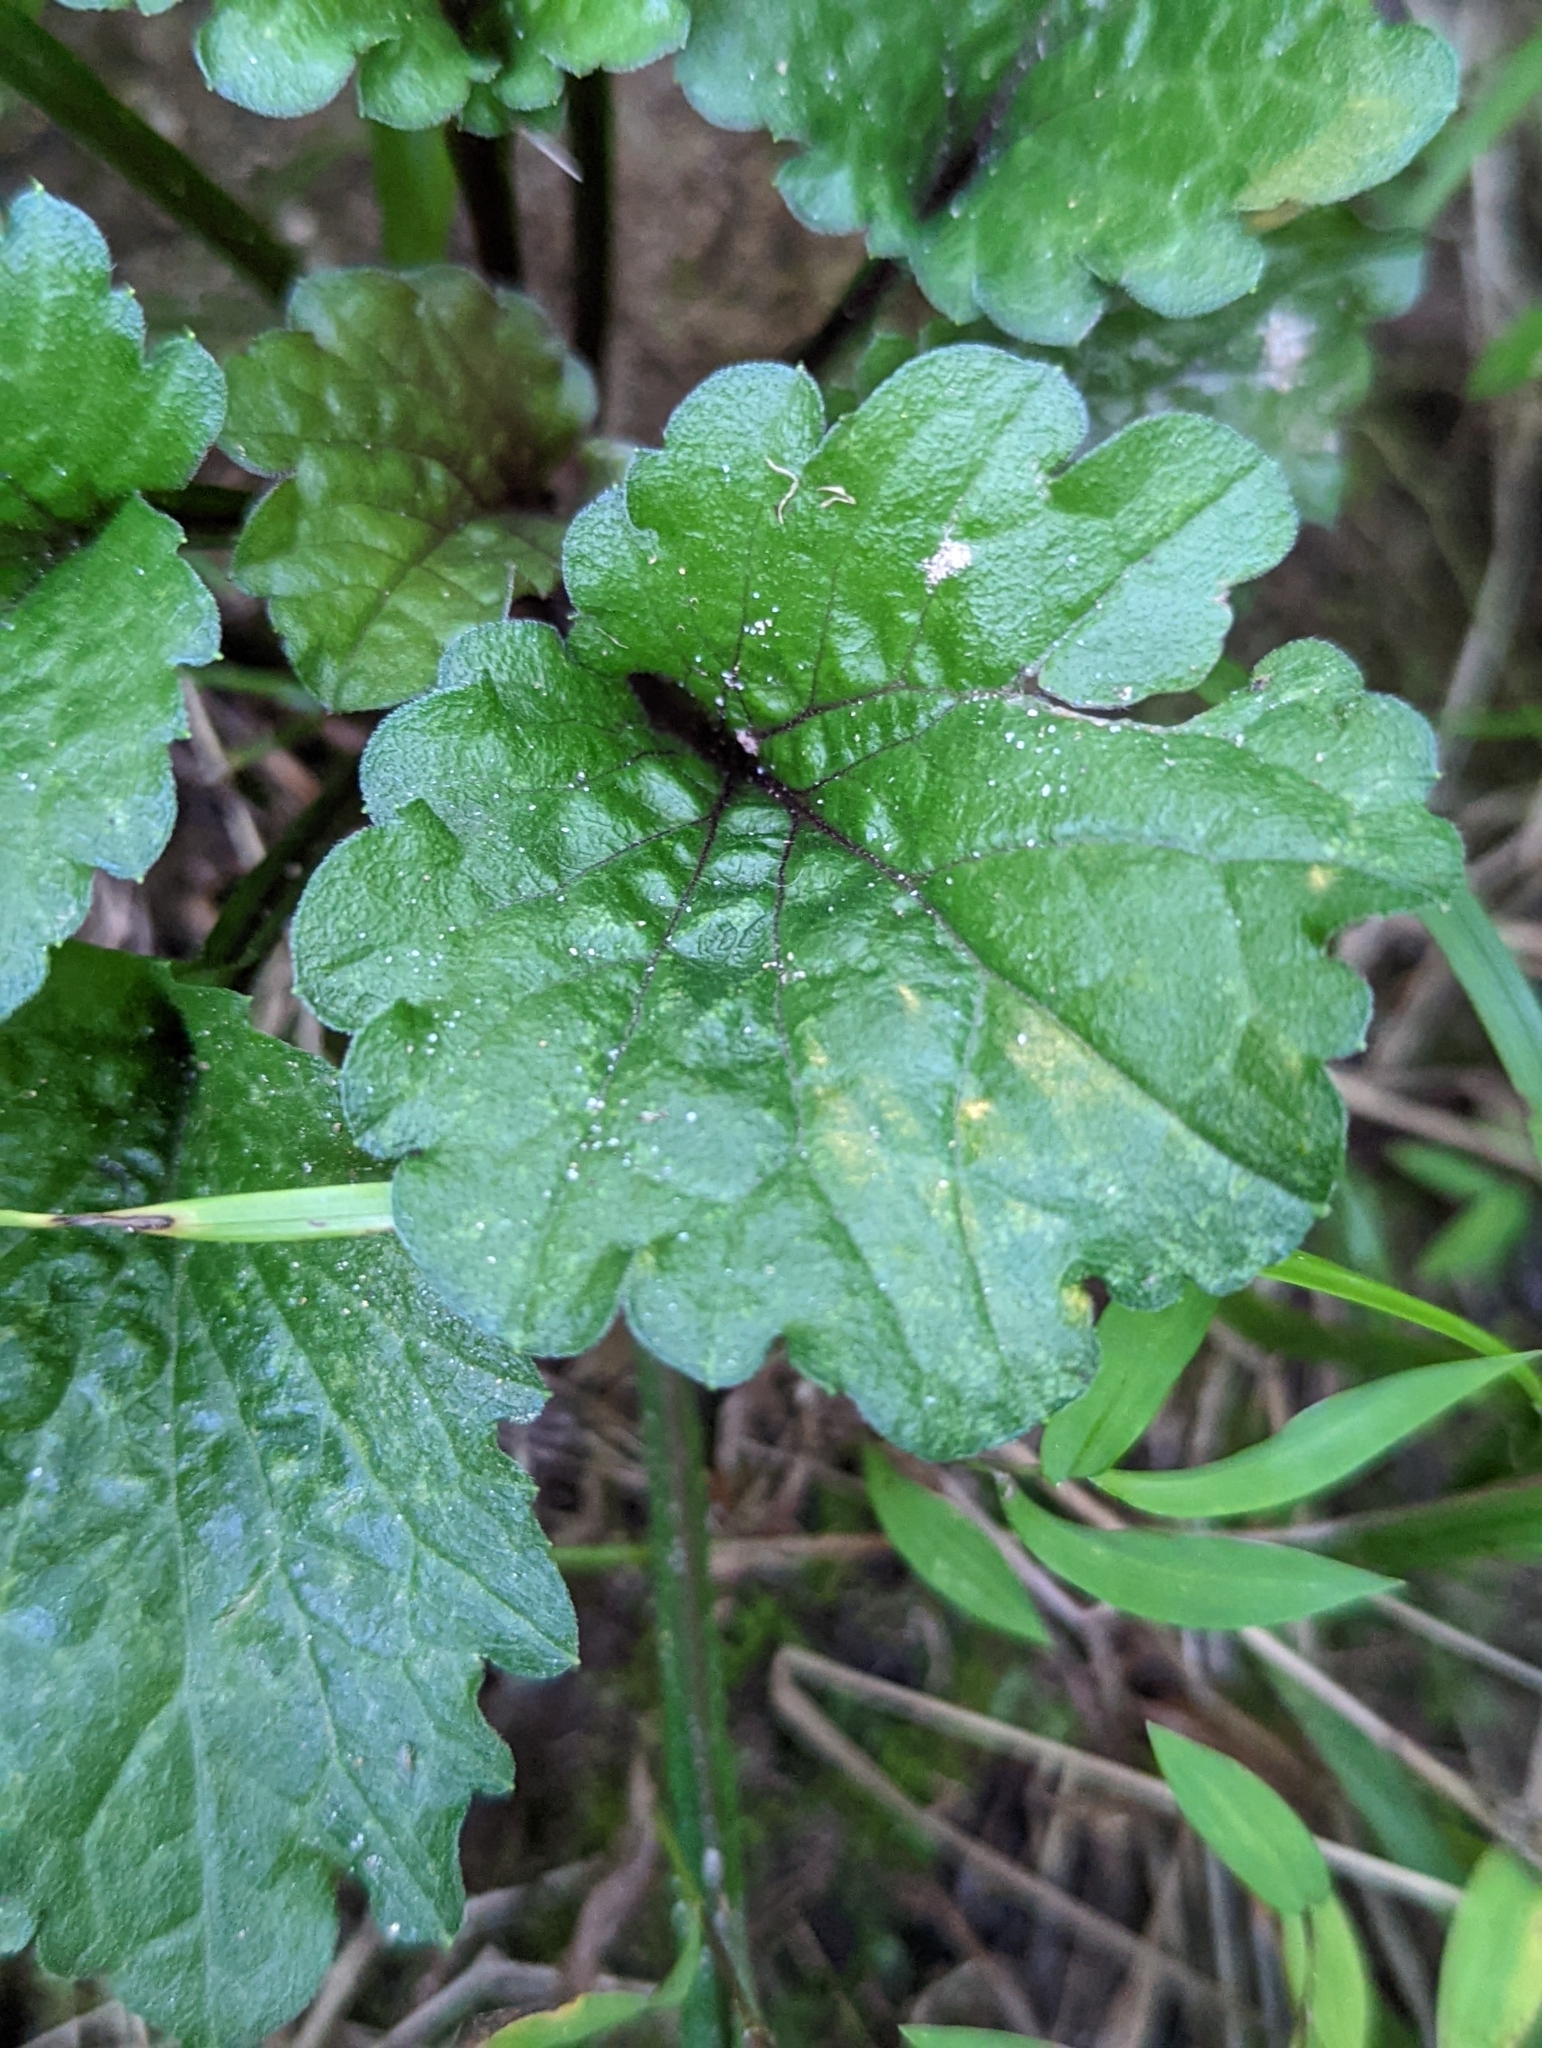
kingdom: Plantae
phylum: Tracheophyta
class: Magnoliopsida
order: Asterales
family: Asteraceae
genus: Erigeron
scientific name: Erigeron annuus
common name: Tall fleabane
